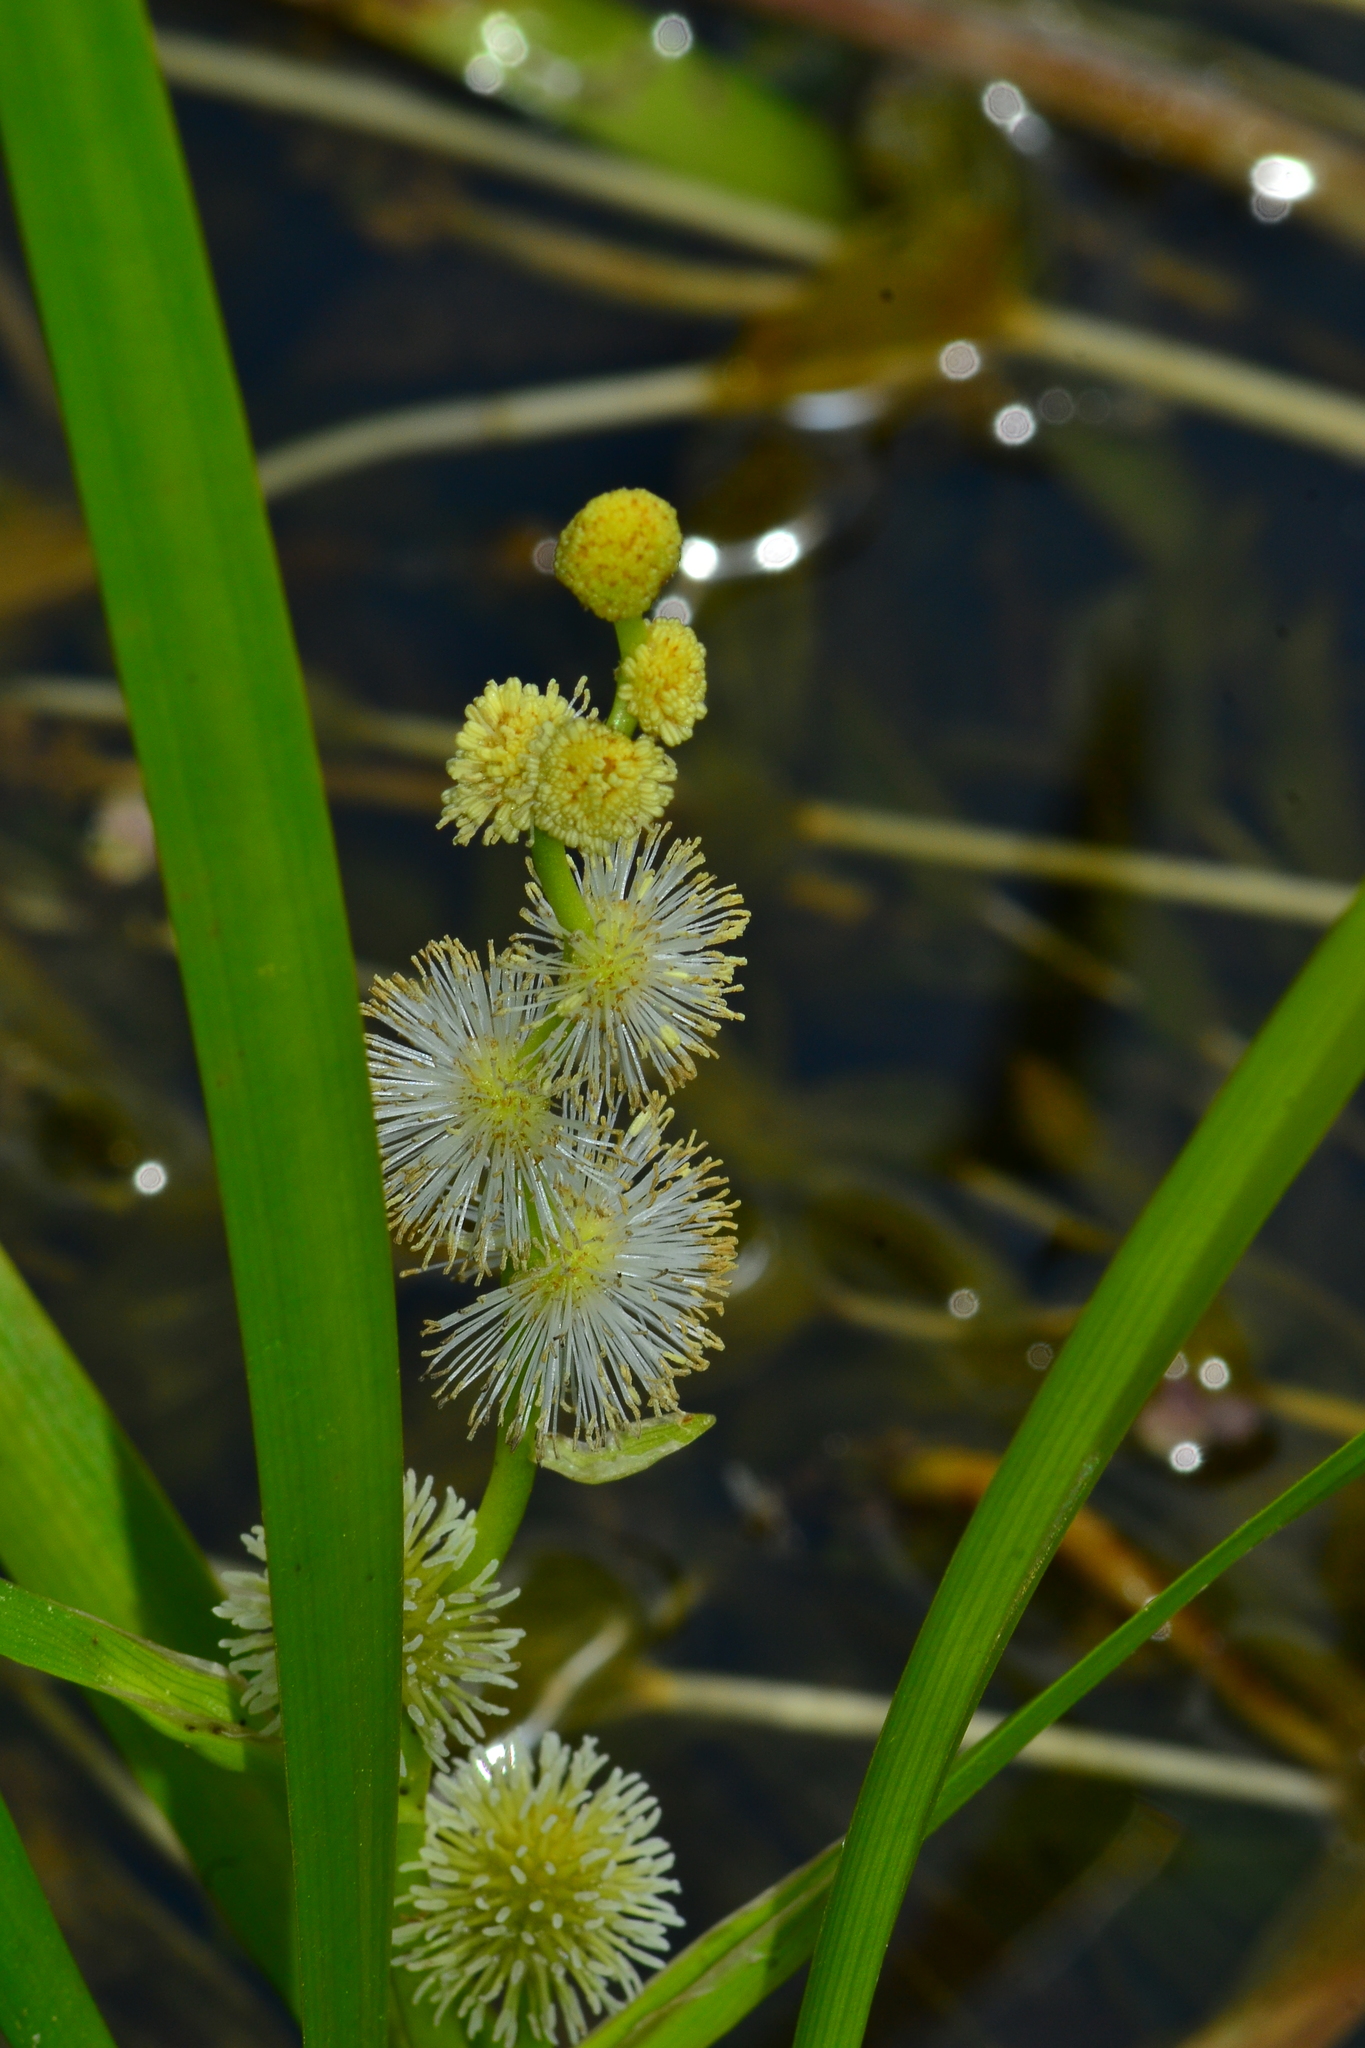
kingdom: Plantae
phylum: Tracheophyta
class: Liliopsida
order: Poales
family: Typhaceae
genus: Sparganium
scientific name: Sparganium emersum
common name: Unbranched bur-reed
